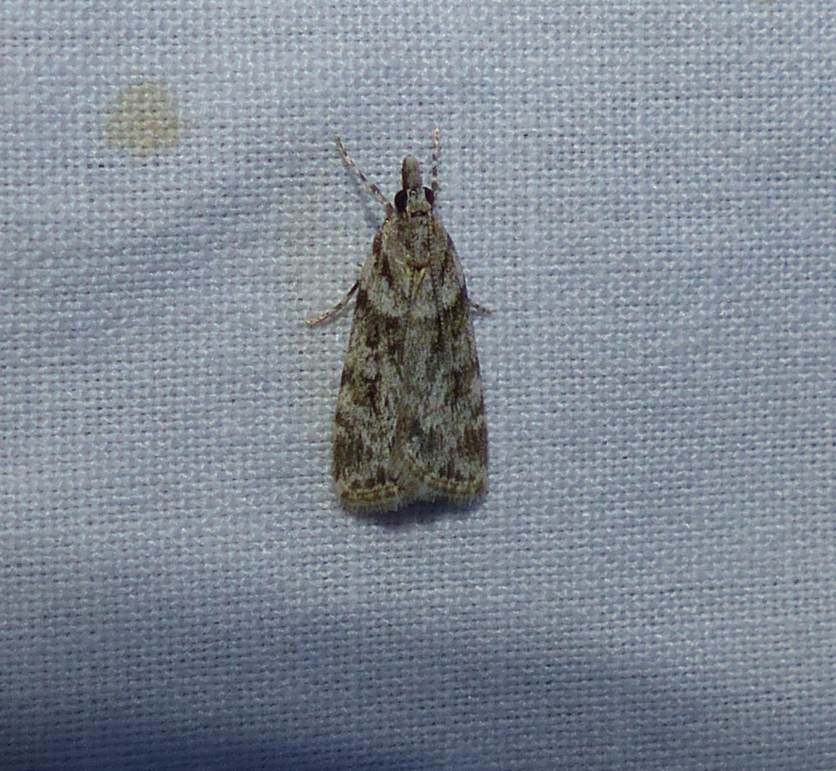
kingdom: Animalia
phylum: Arthropoda
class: Insecta
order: Lepidoptera
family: Crambidae
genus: Scoparia
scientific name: Scoparia biplagialis
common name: Double-striped scoparia moth
